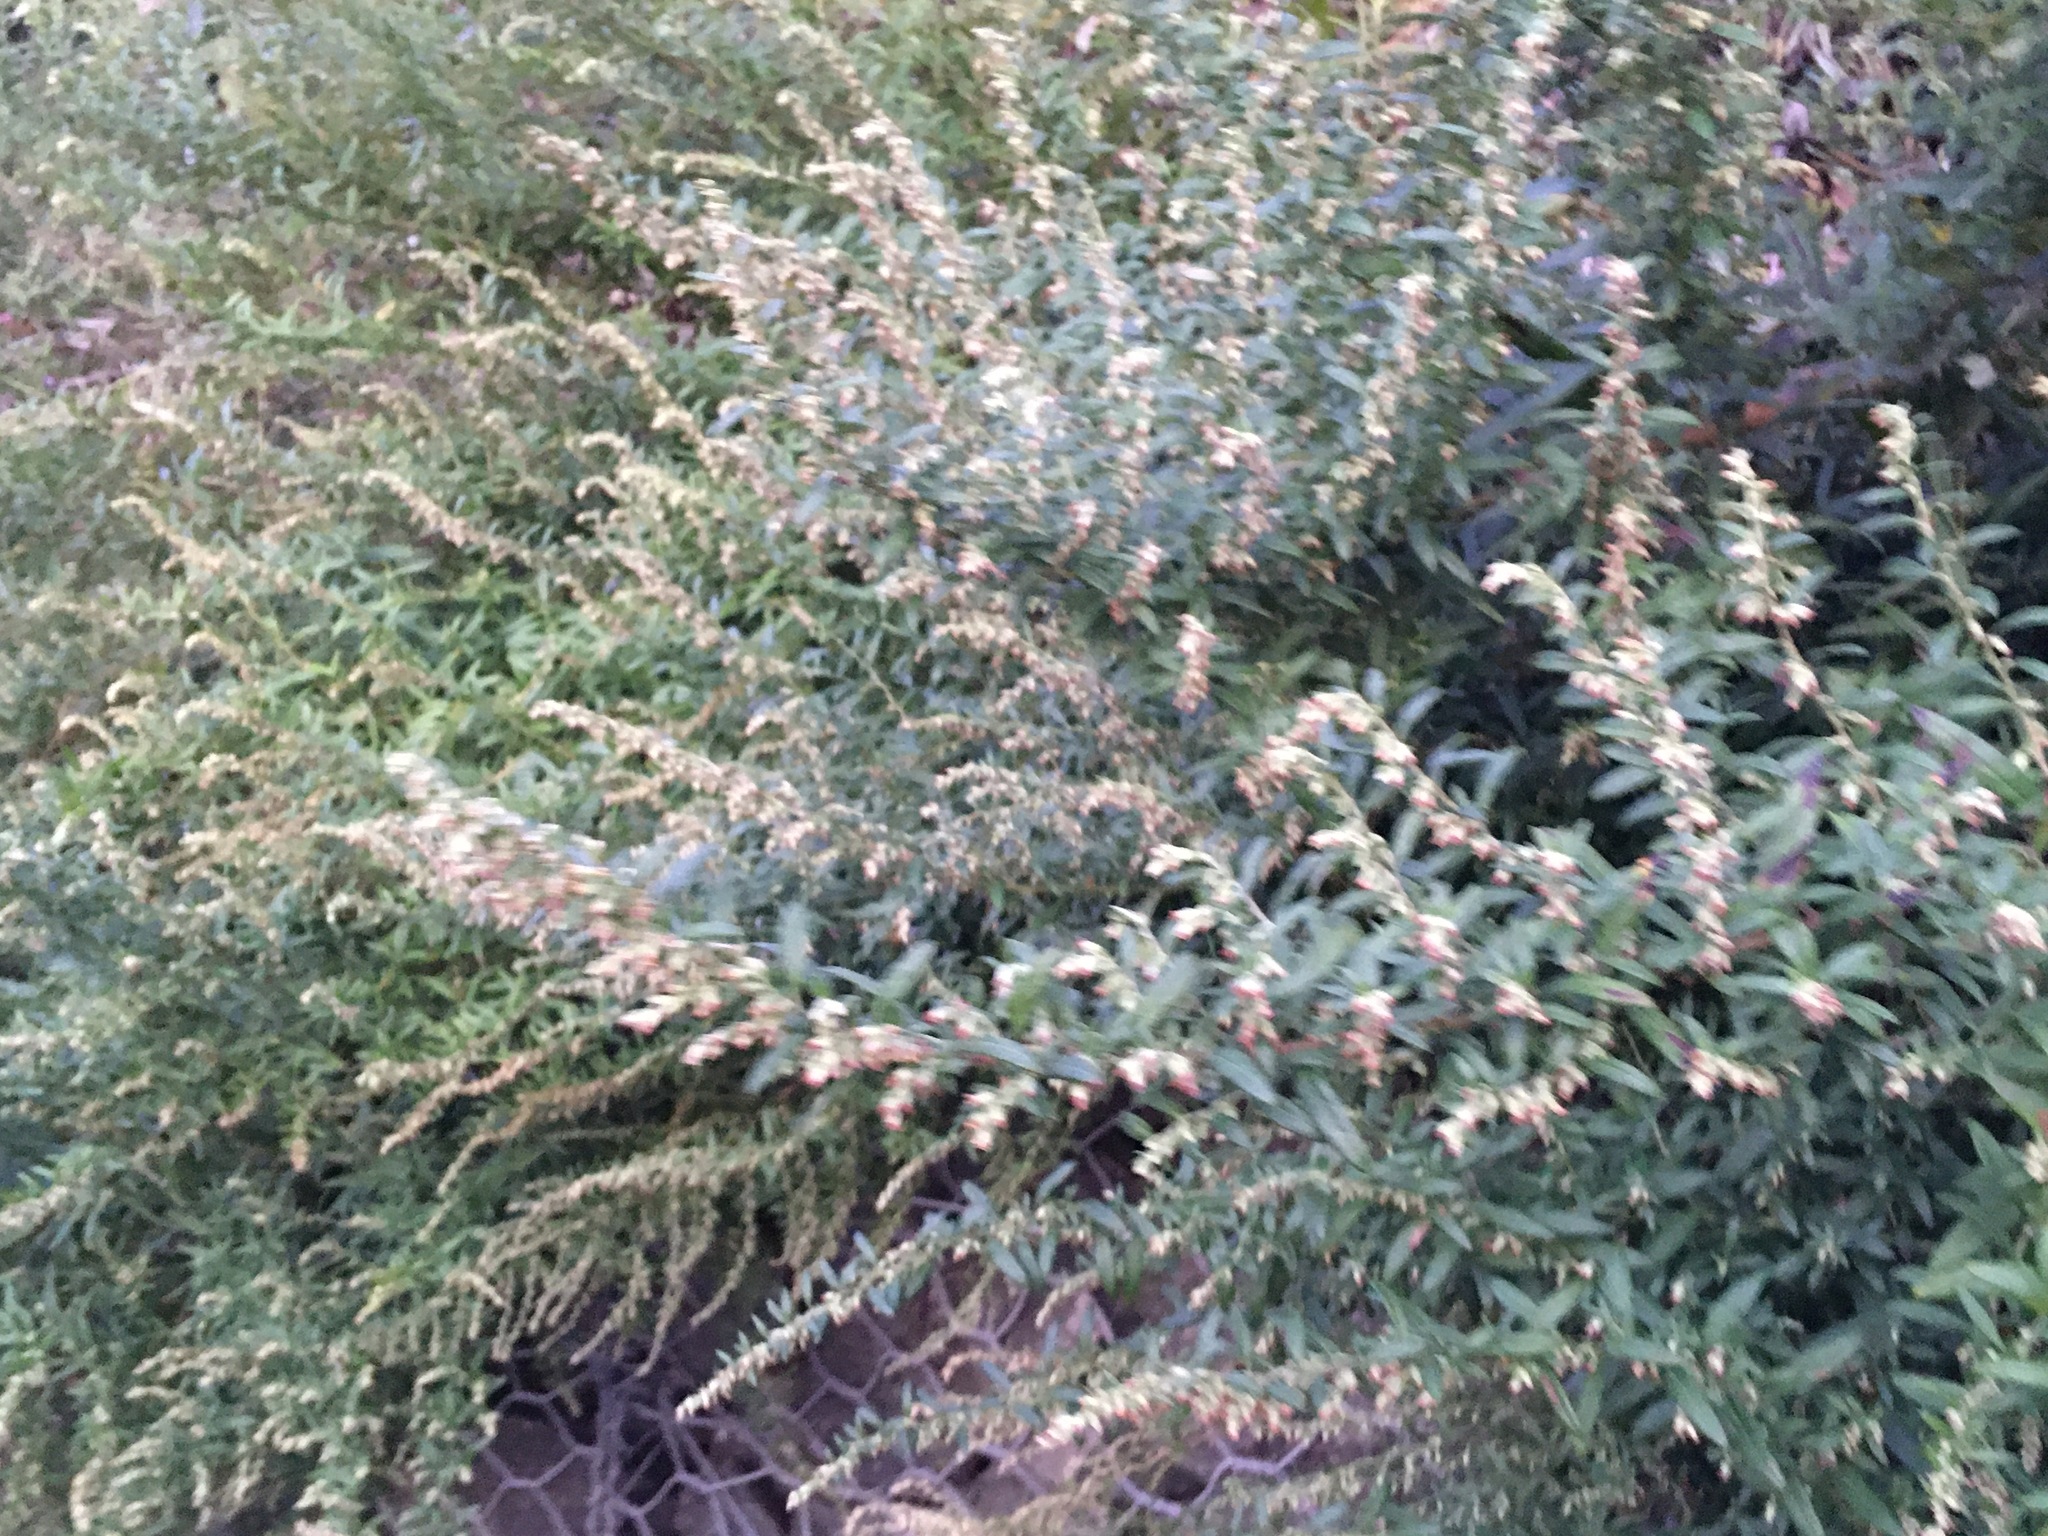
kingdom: Plantae
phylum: Tracheophyta
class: Magnoliopsida
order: Asterales
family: Asteraceae
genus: Artemisia
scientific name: Artemisia vulgaris
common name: Mugwort
